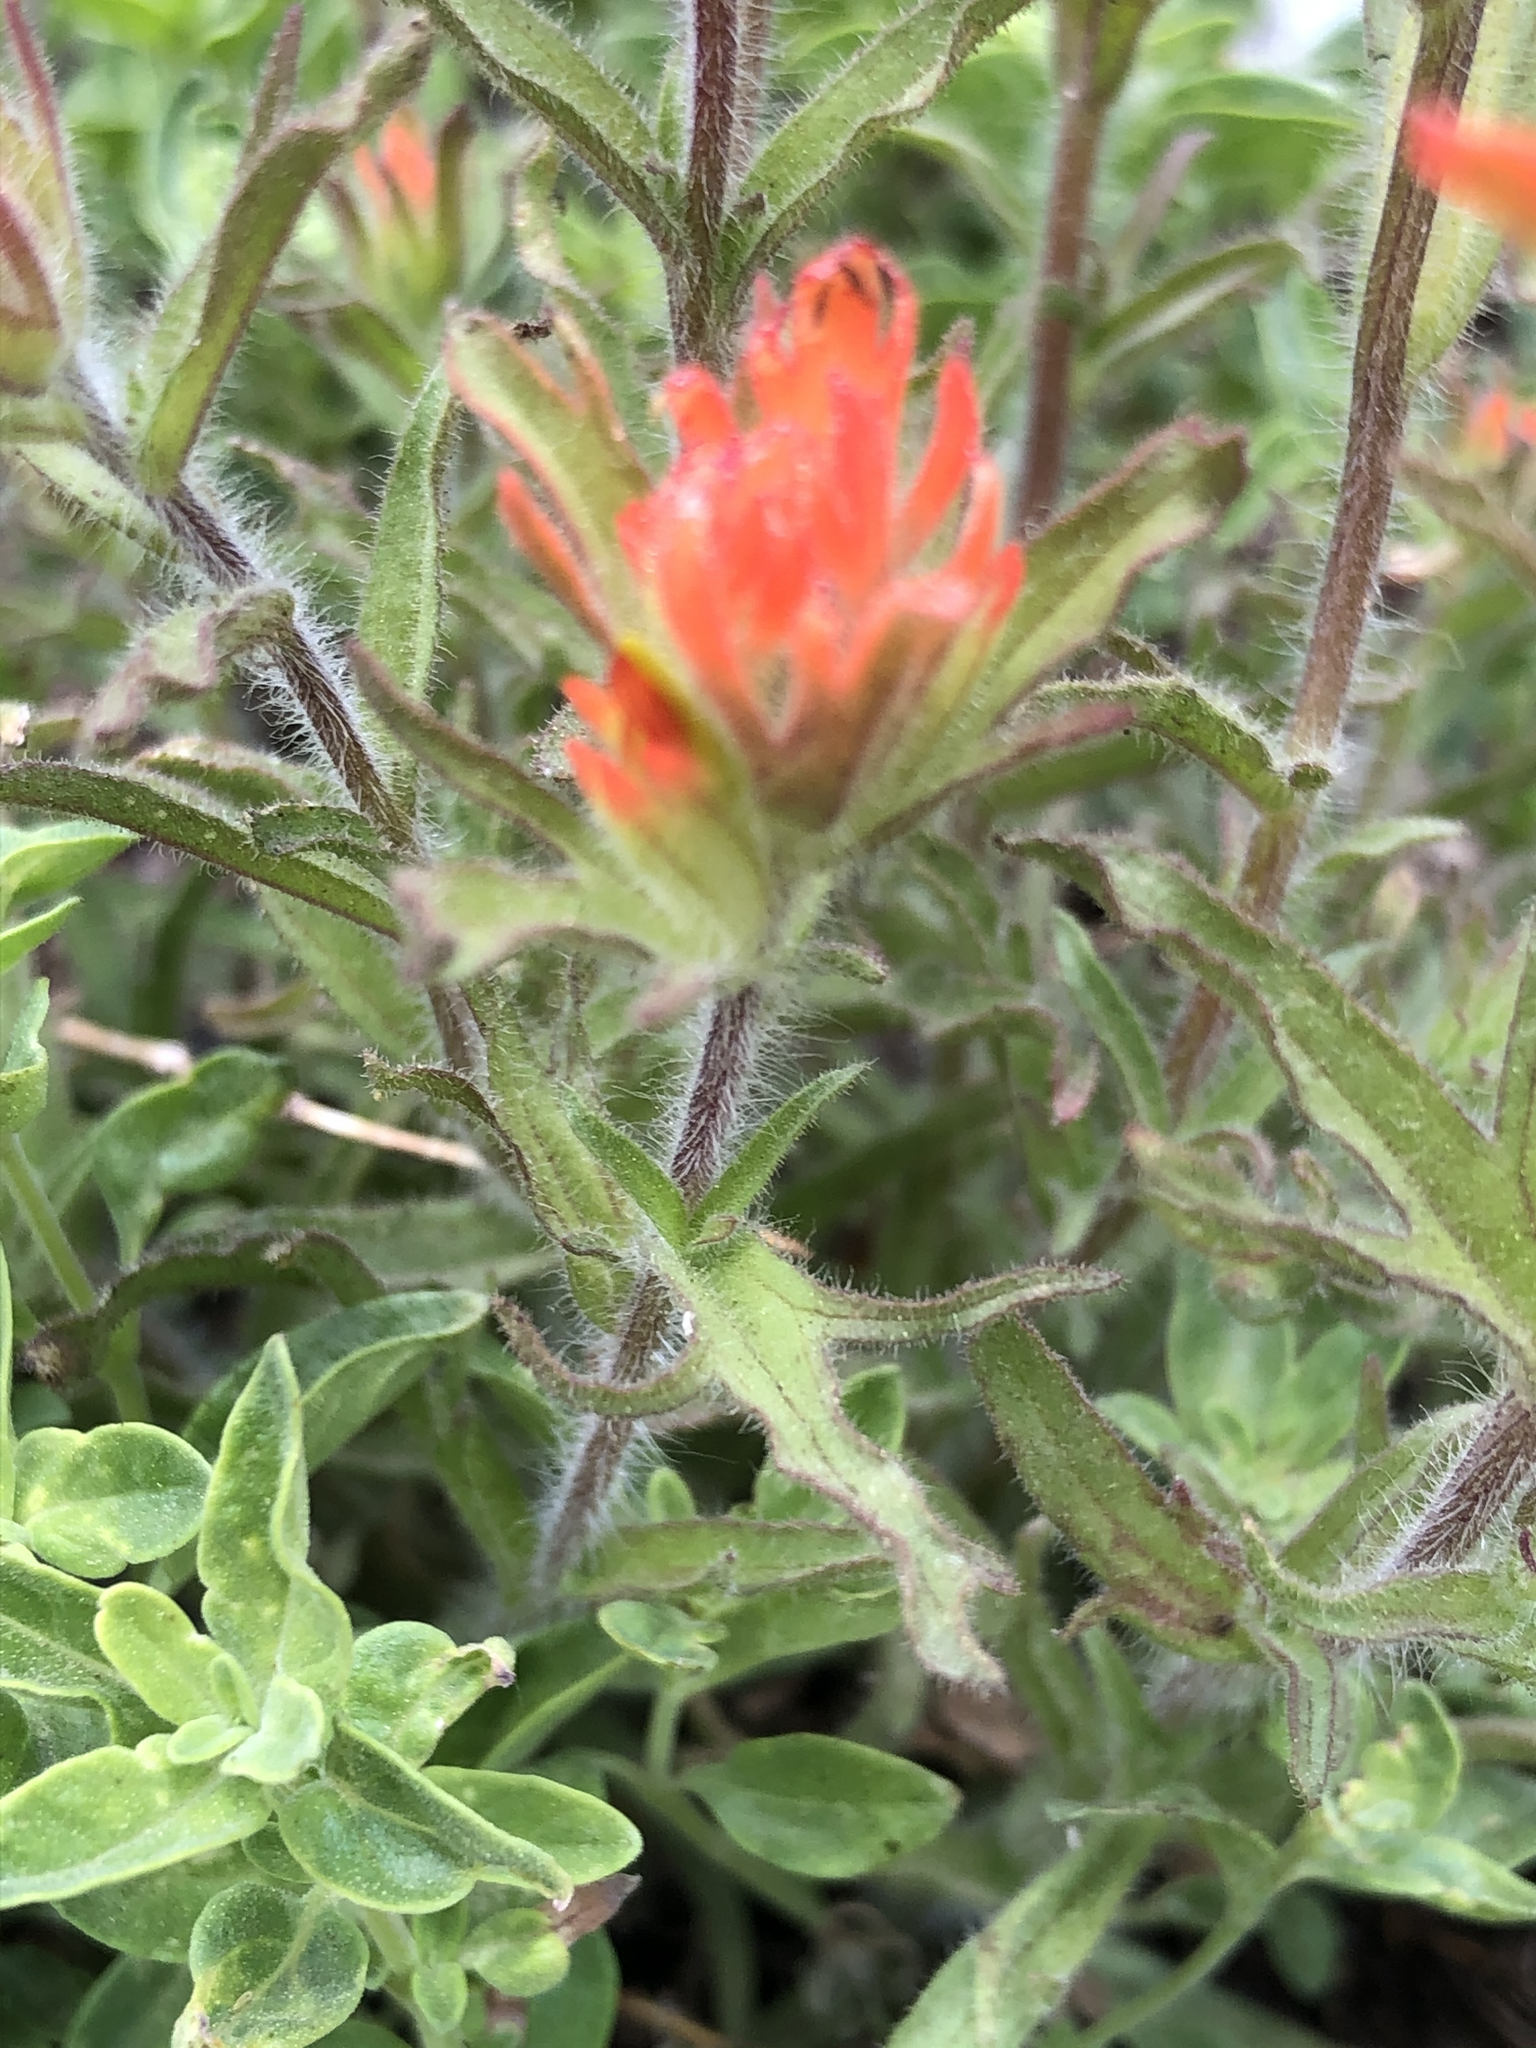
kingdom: Plantae
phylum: Tracheophyta
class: Magnoliopsida
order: Lamiales
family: Orobanchaceae
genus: Castilleja
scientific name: Castilleja peirsonii
